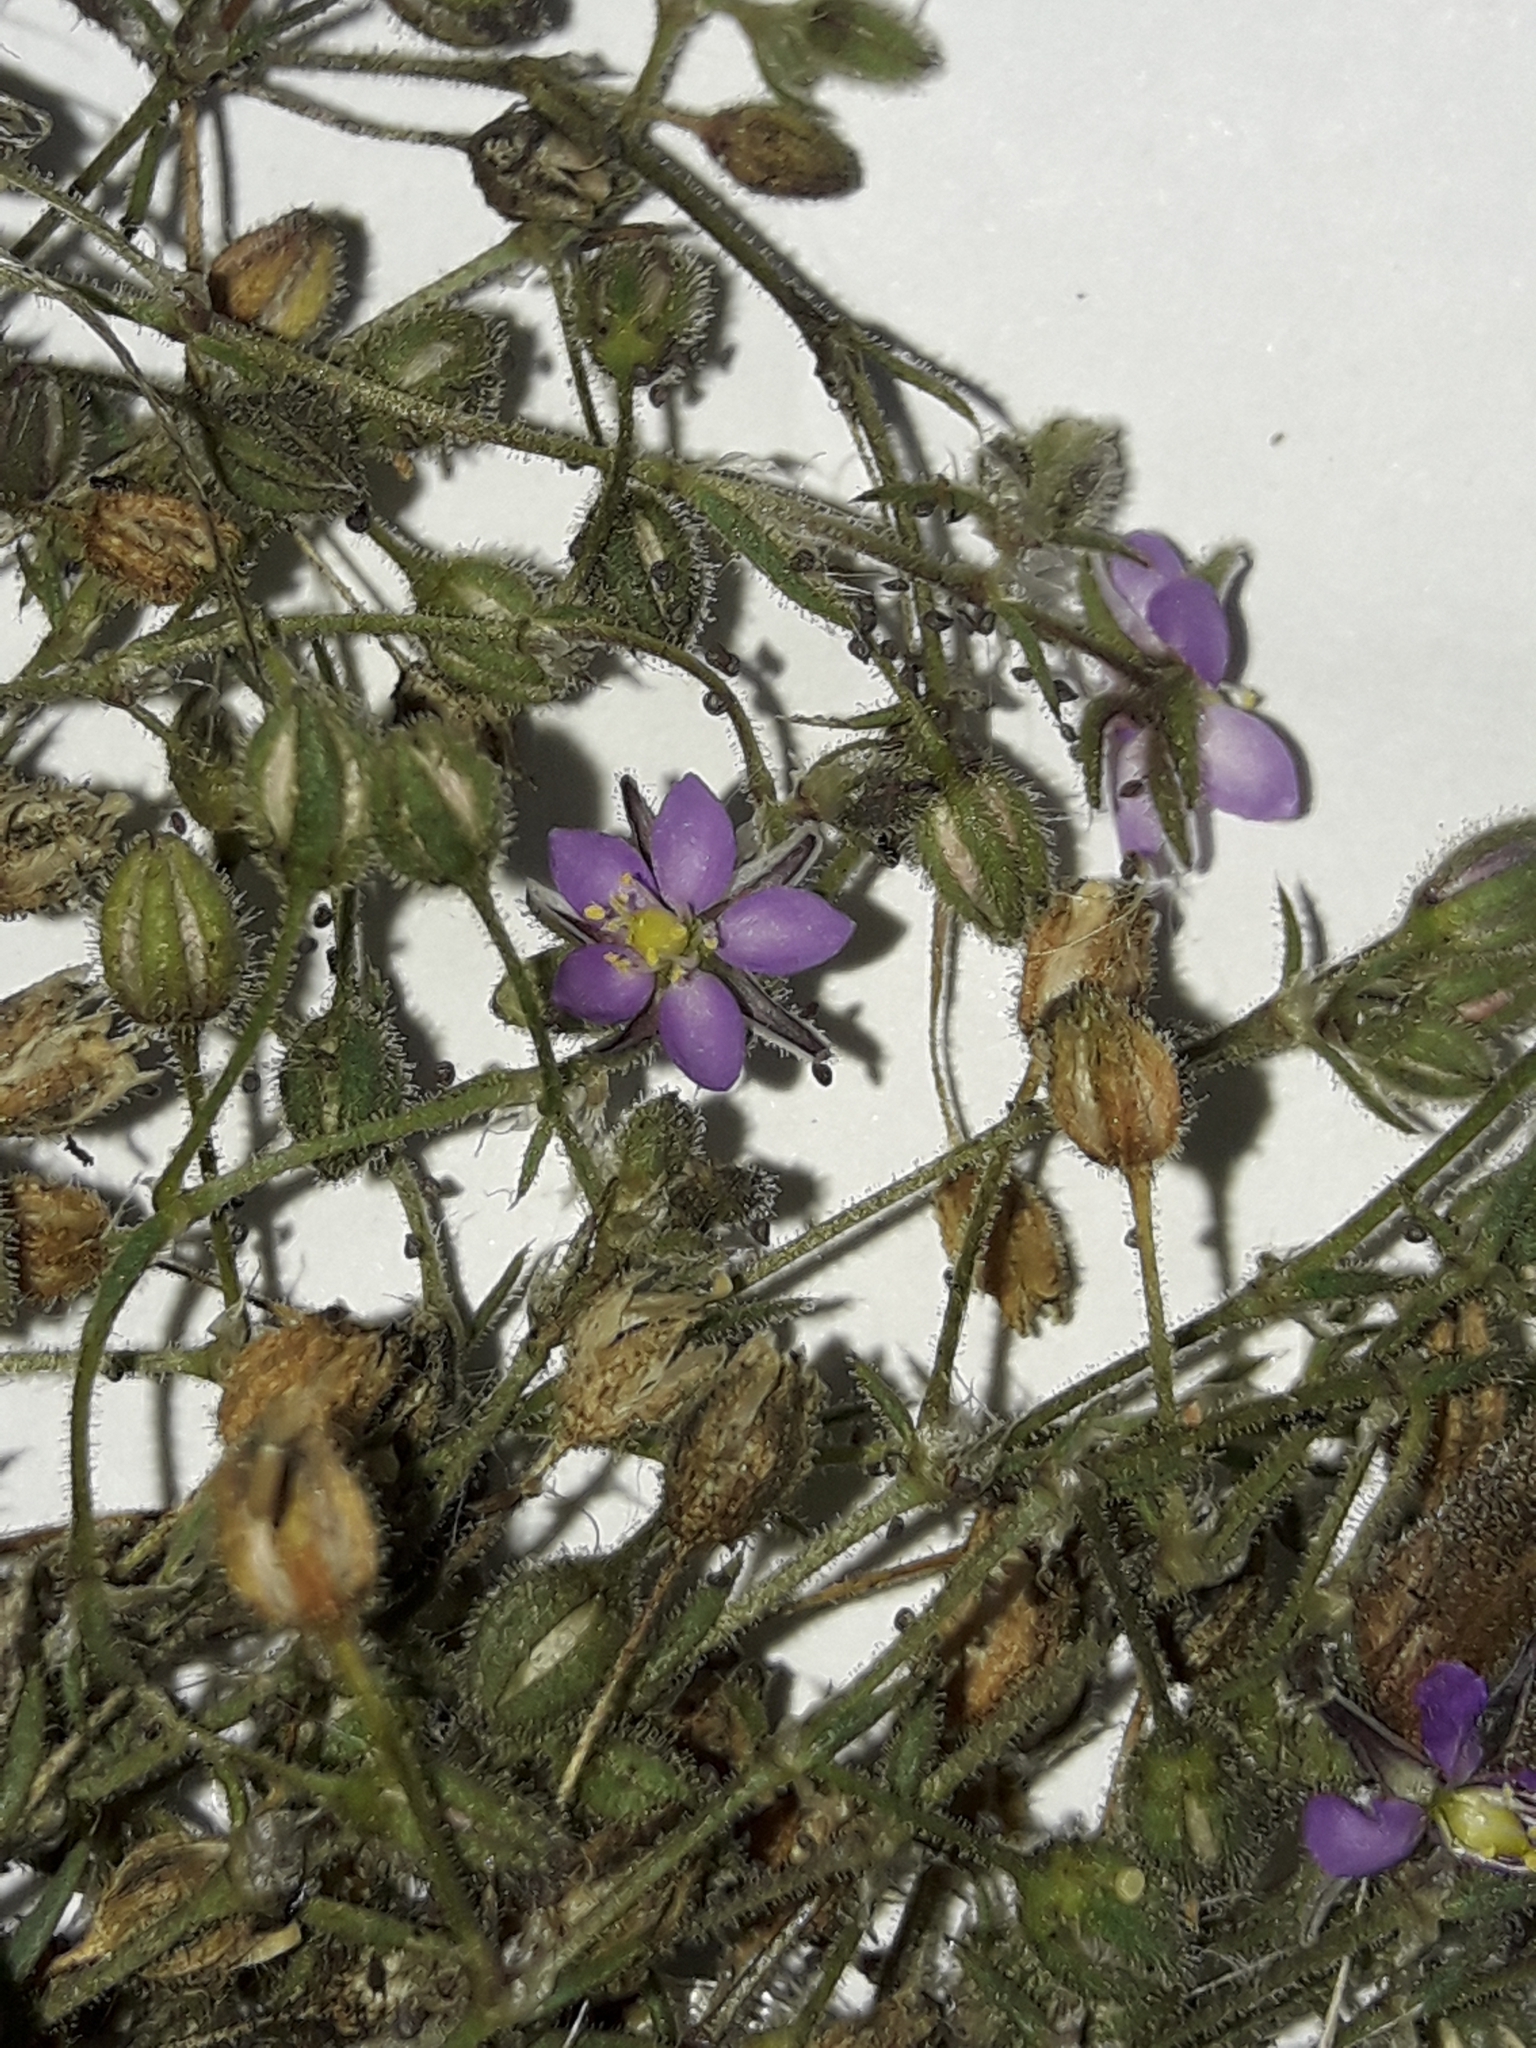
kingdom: Plantae
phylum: Tracheophyta
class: Magnoliopsida
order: Caryophyllales
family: Caryophyllaceae
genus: Spergularia
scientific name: Spergularia rubra
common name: Red sand-spurrey
